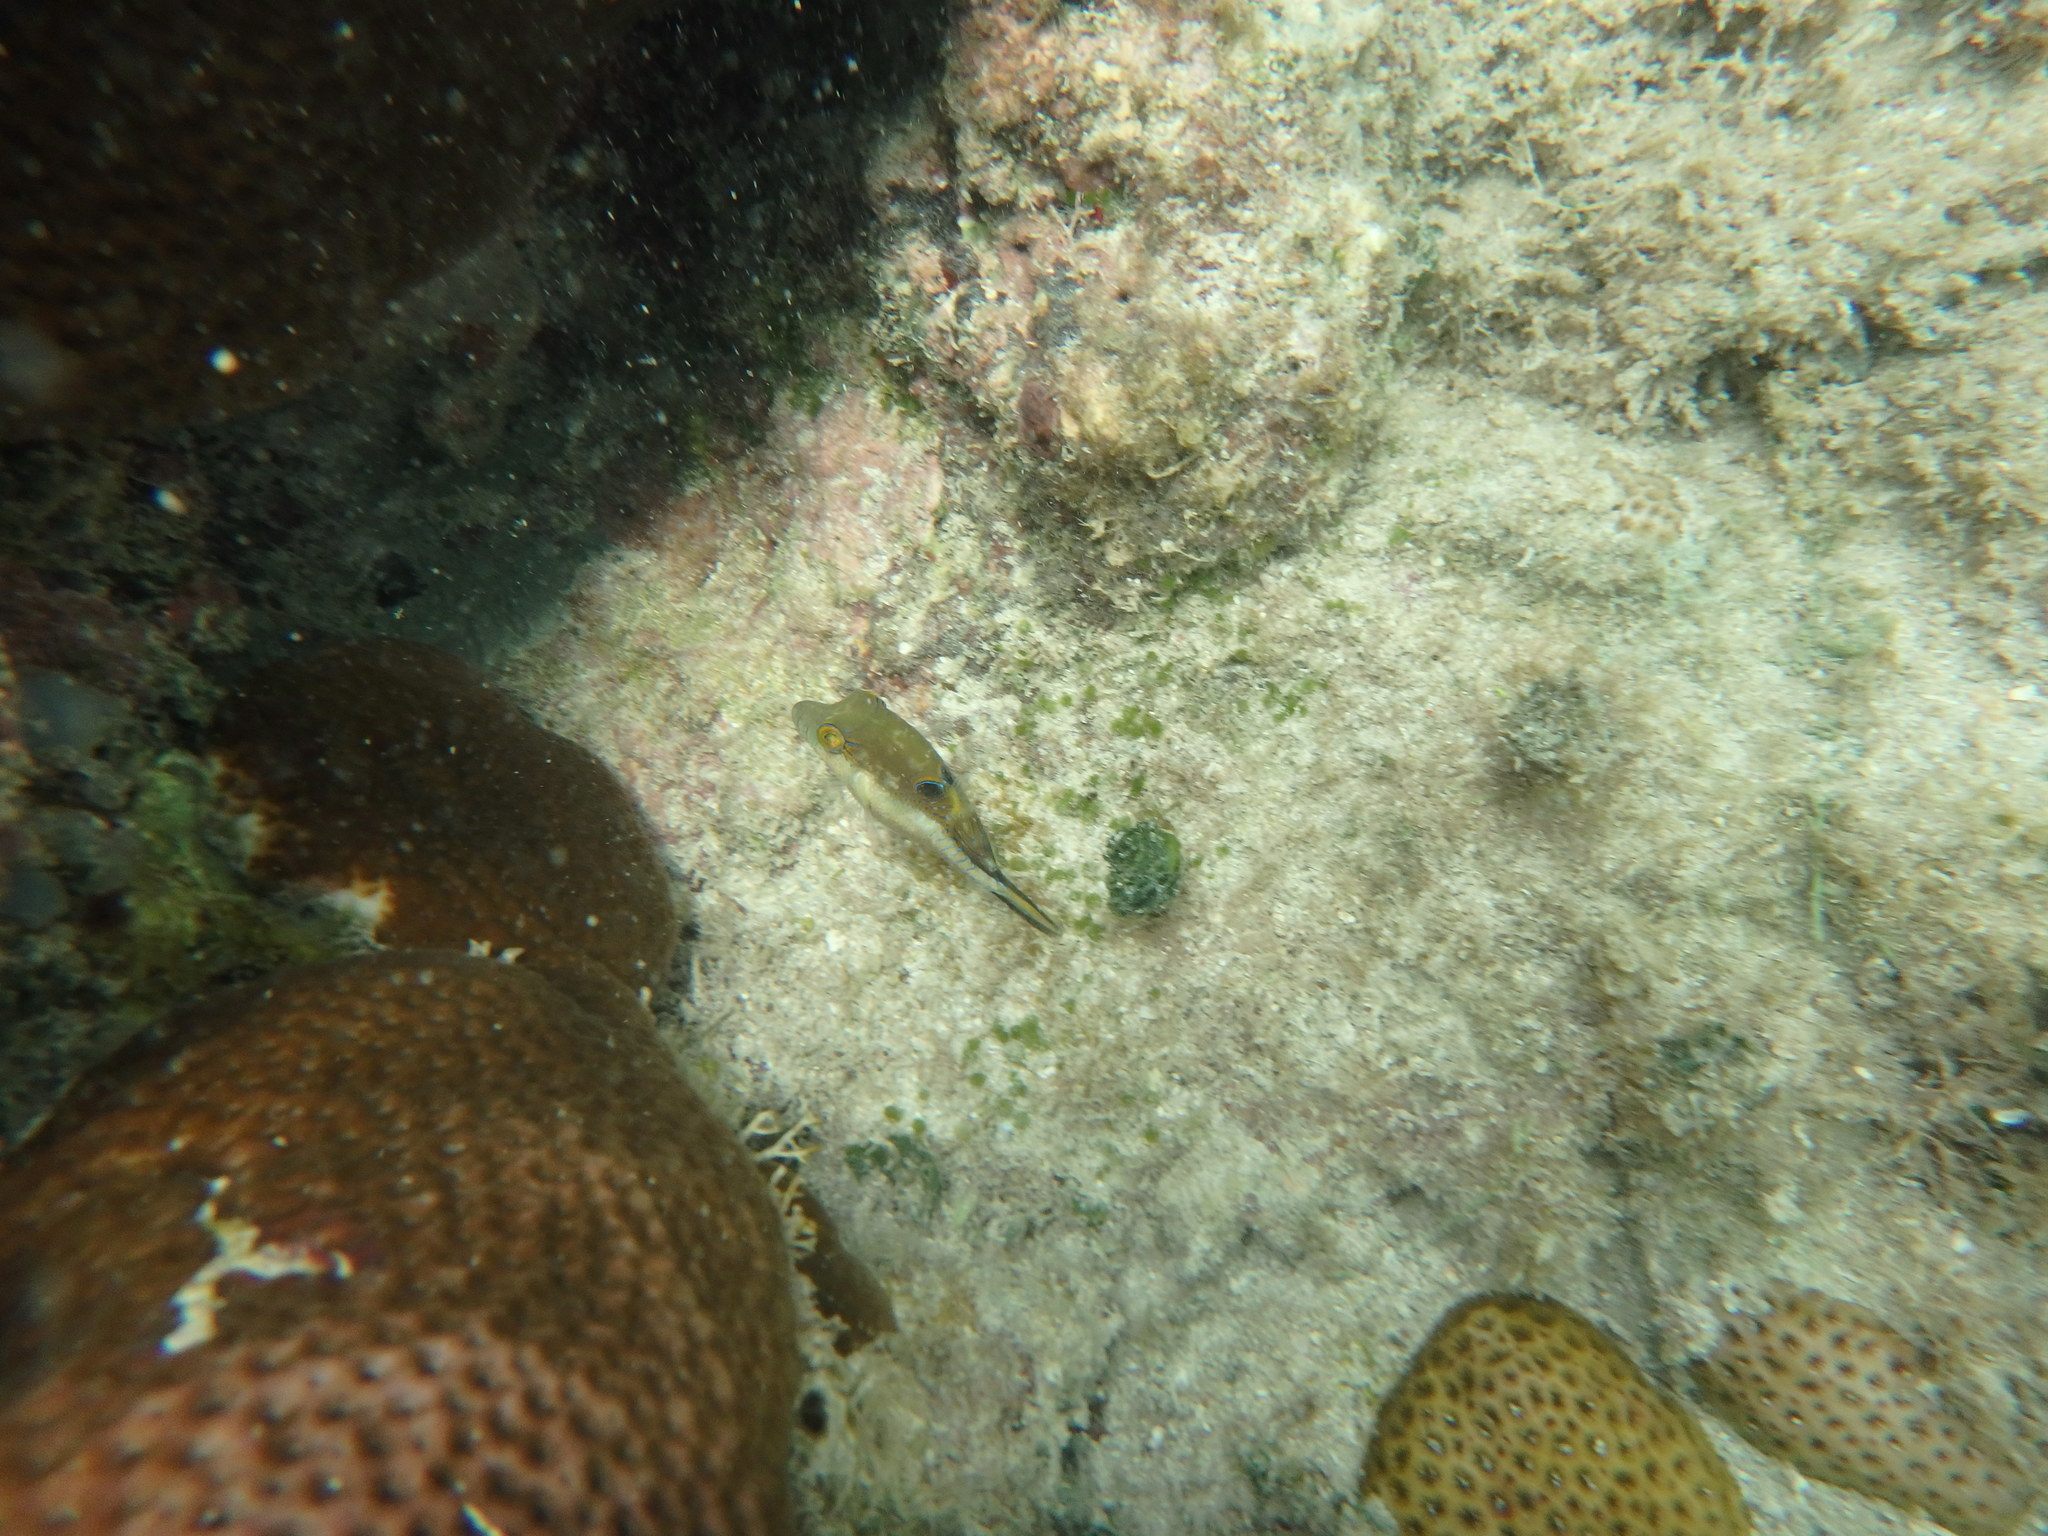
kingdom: Animalia
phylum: Chordata
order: Tetraodontiformes
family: Tetraodontidae
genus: Canthigaster
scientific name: Canthigaster rostrata
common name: Caribbean sharpnose-puffer
